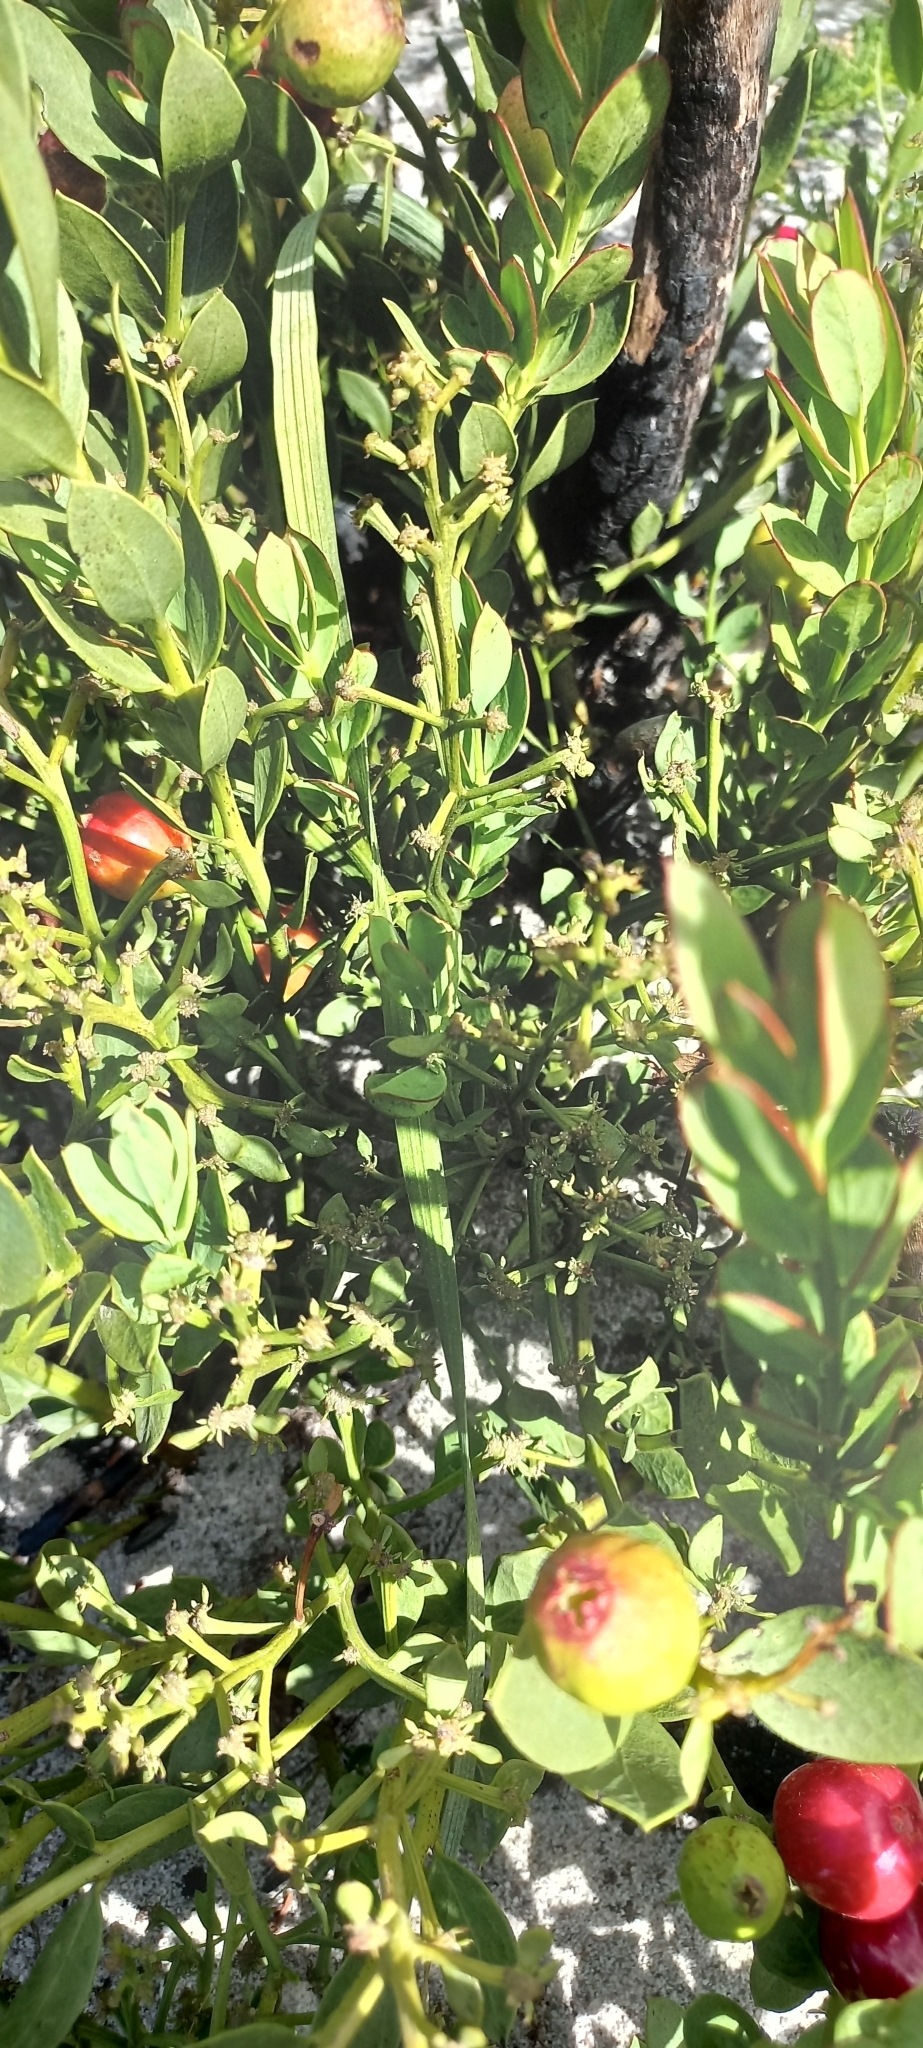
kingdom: Plantae
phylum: Tracheophyta
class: Magnoliopsida
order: Santalales
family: Santalaceae
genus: Osyris
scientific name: Osyris speciosa
